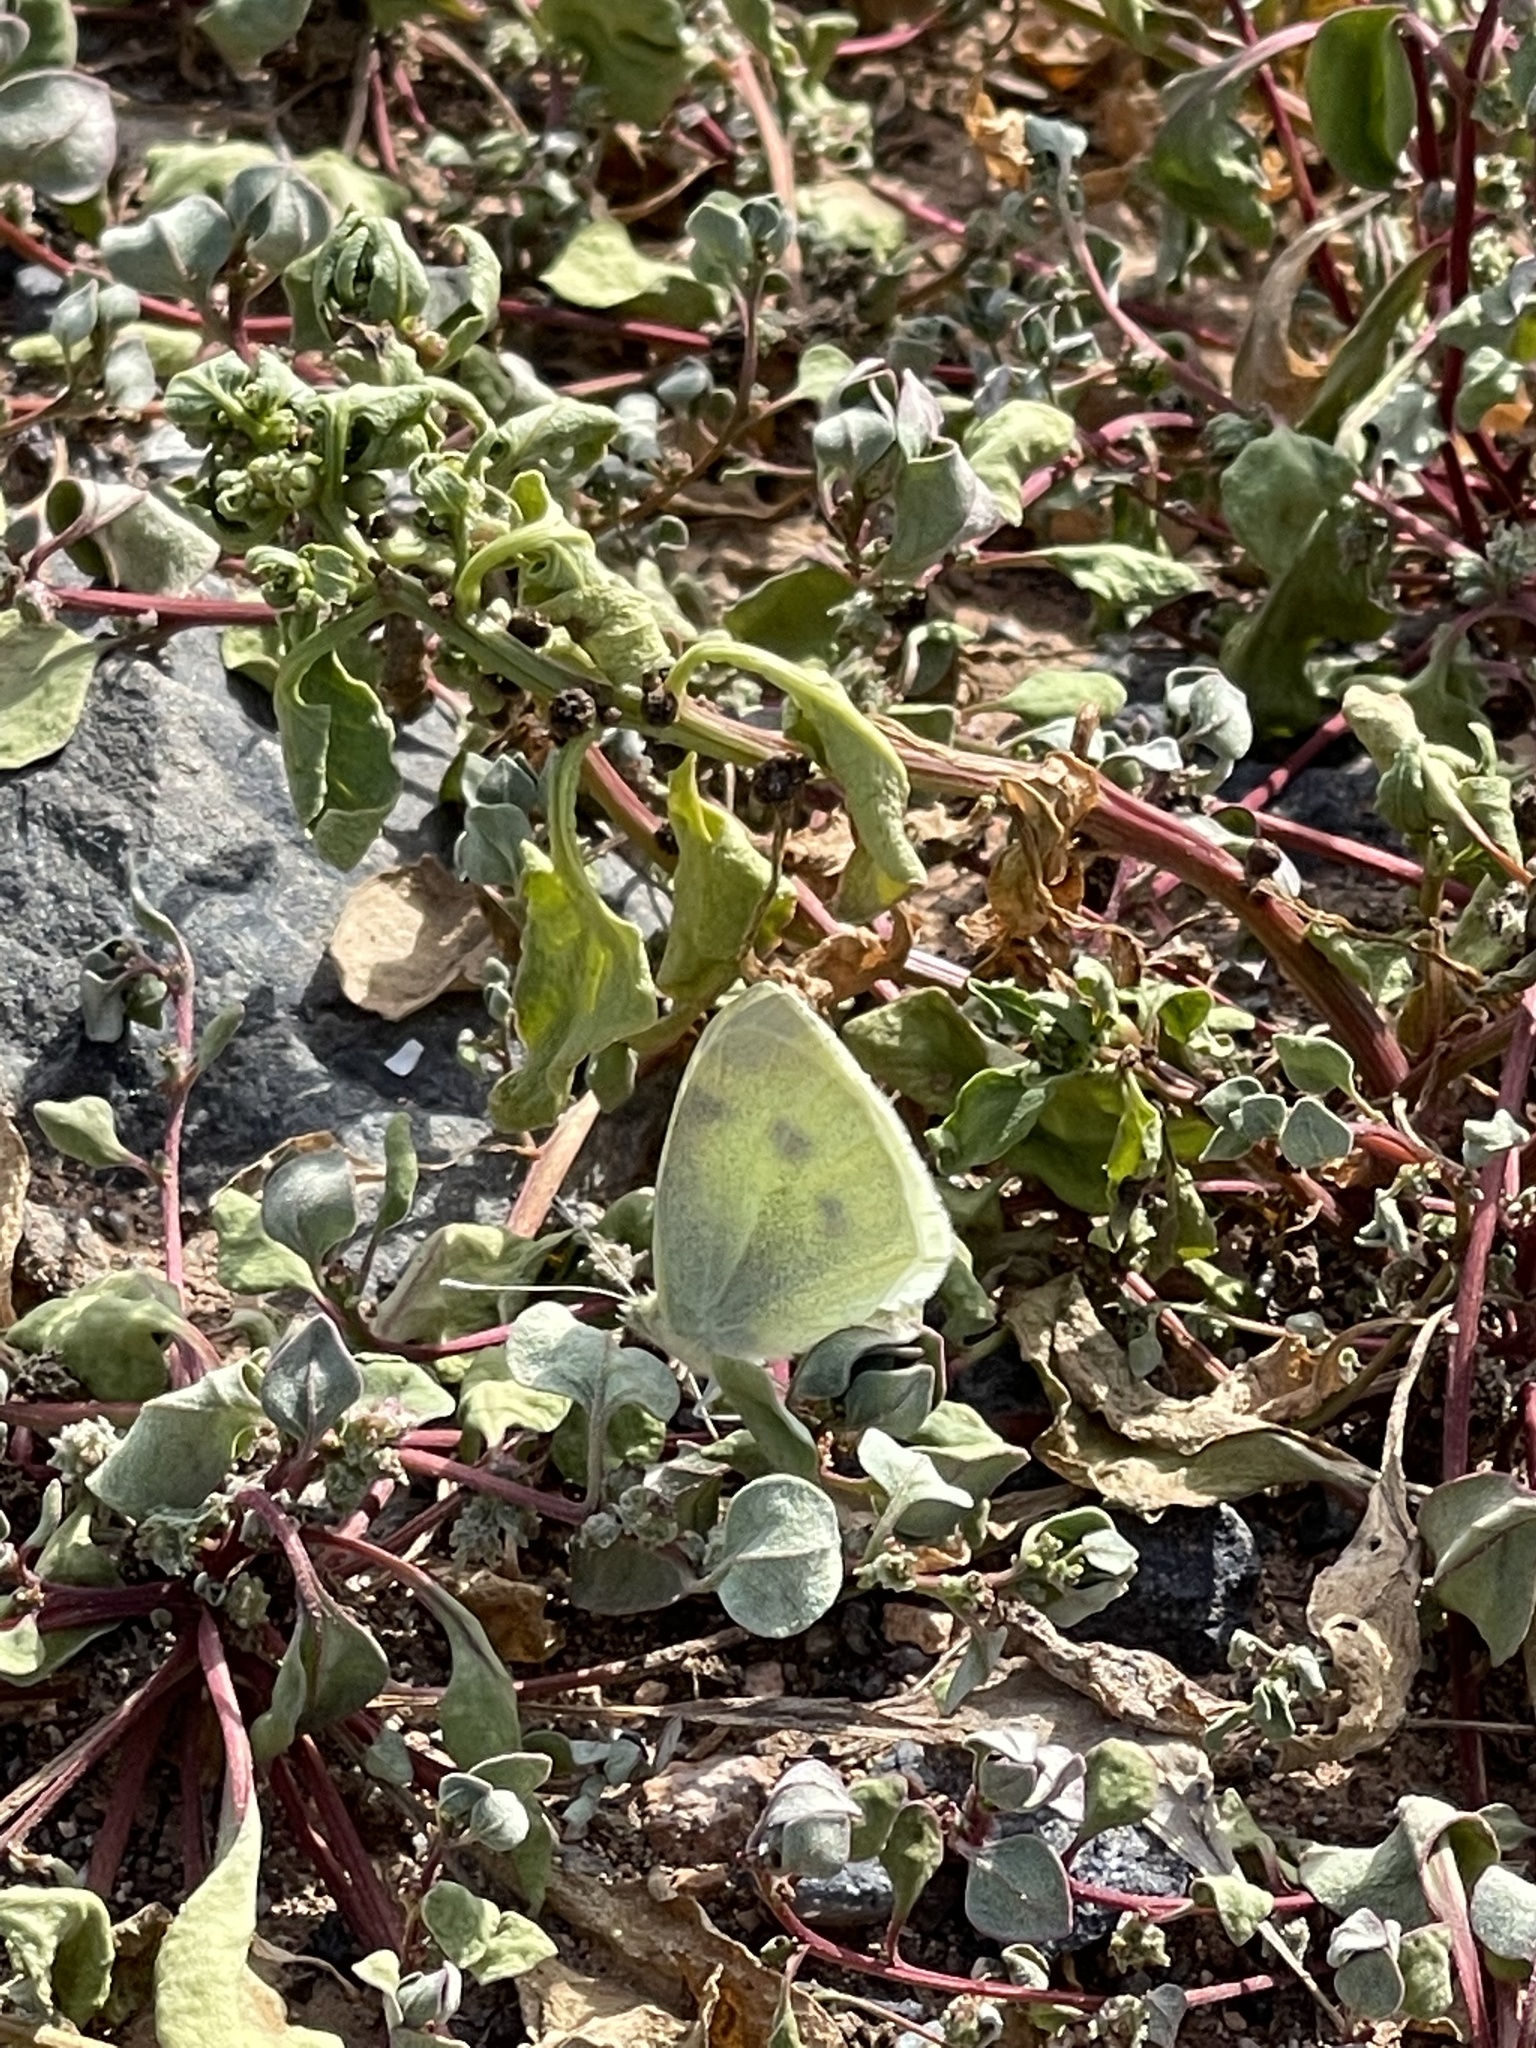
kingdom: Animalia
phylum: Arthropoda
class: Insecta
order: Lepidoptera
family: Pieridae
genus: Pieris
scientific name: Pieris rapae
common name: Small white
